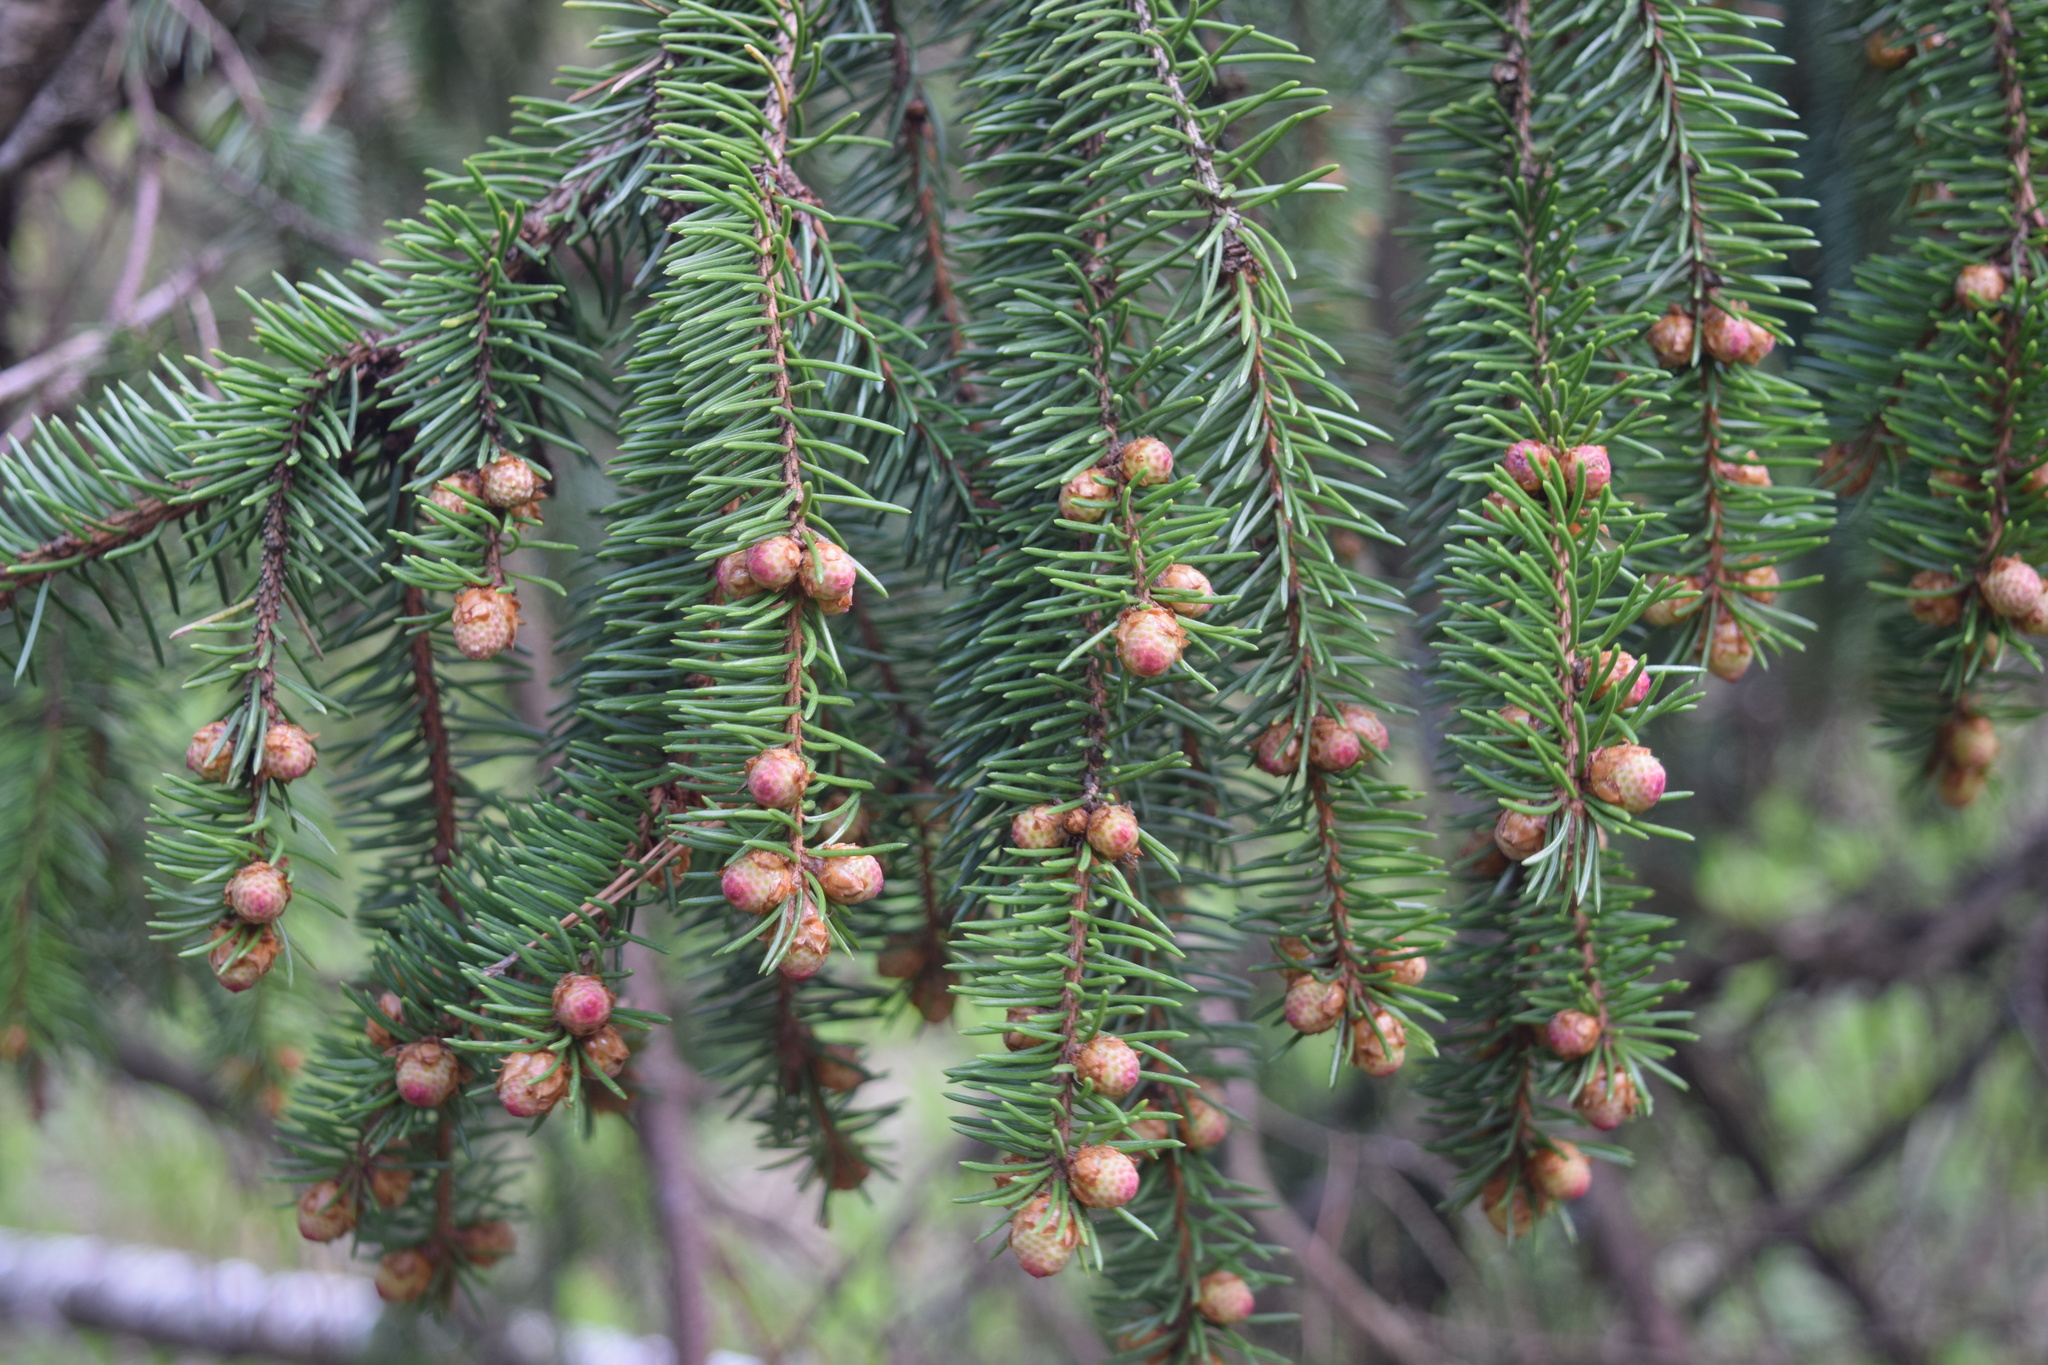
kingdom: Plantae
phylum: Tracheophyta
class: Pinopsida
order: Pinales
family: Pinaceae
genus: Picea
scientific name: Picea abies
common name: Norway spruce
